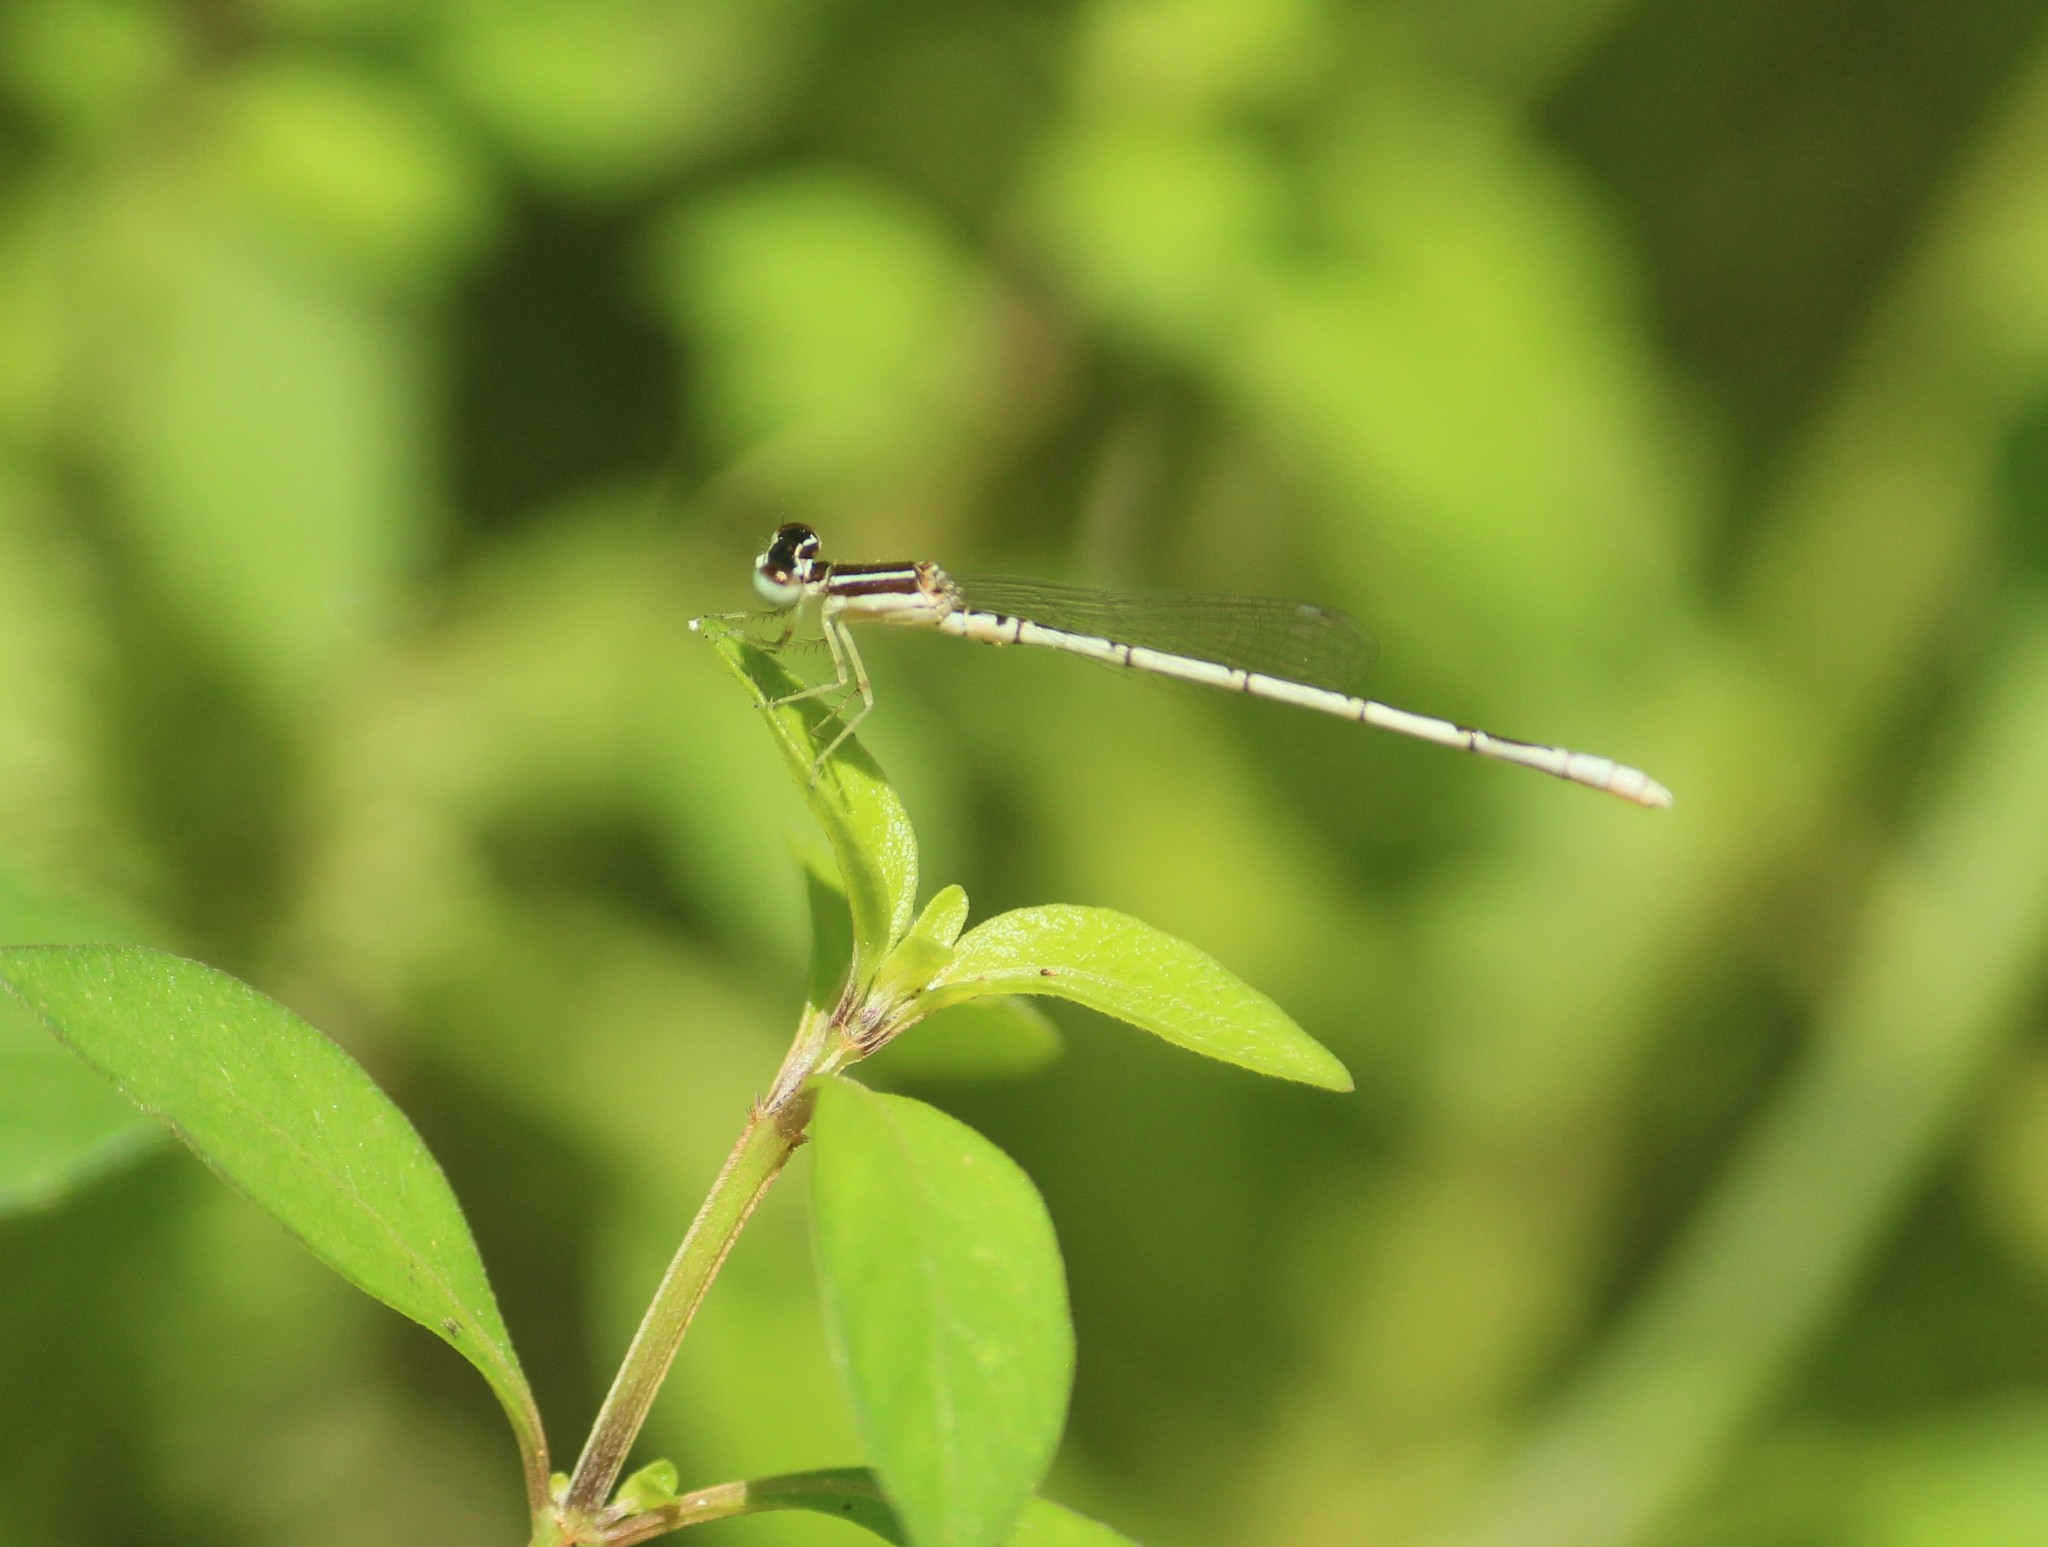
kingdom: Animalia
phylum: Arthropoda
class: Insecta
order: Odonata
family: Coenagrionidae
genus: Agriocnemis
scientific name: Agriocnemis pieris
